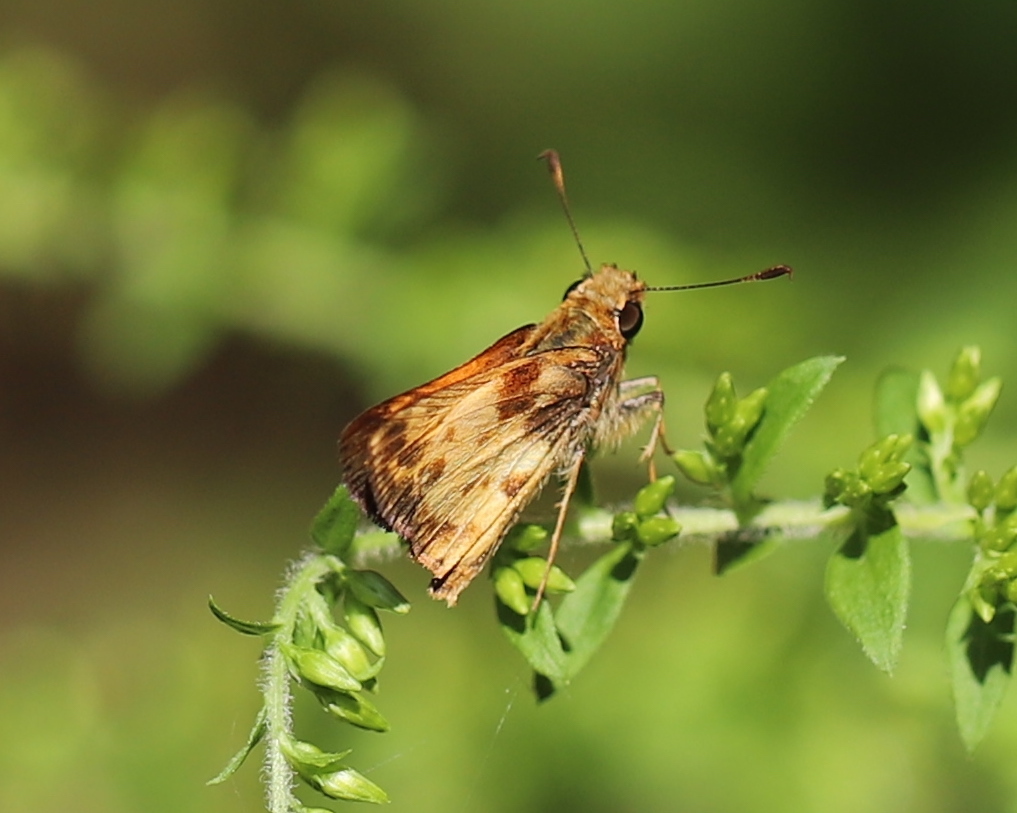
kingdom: Animalia
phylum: Arthropoda
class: Insecta
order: Lepidoptera
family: Hesperiidae
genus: Lon
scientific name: Lon zabulon
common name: Zabulon skipper
